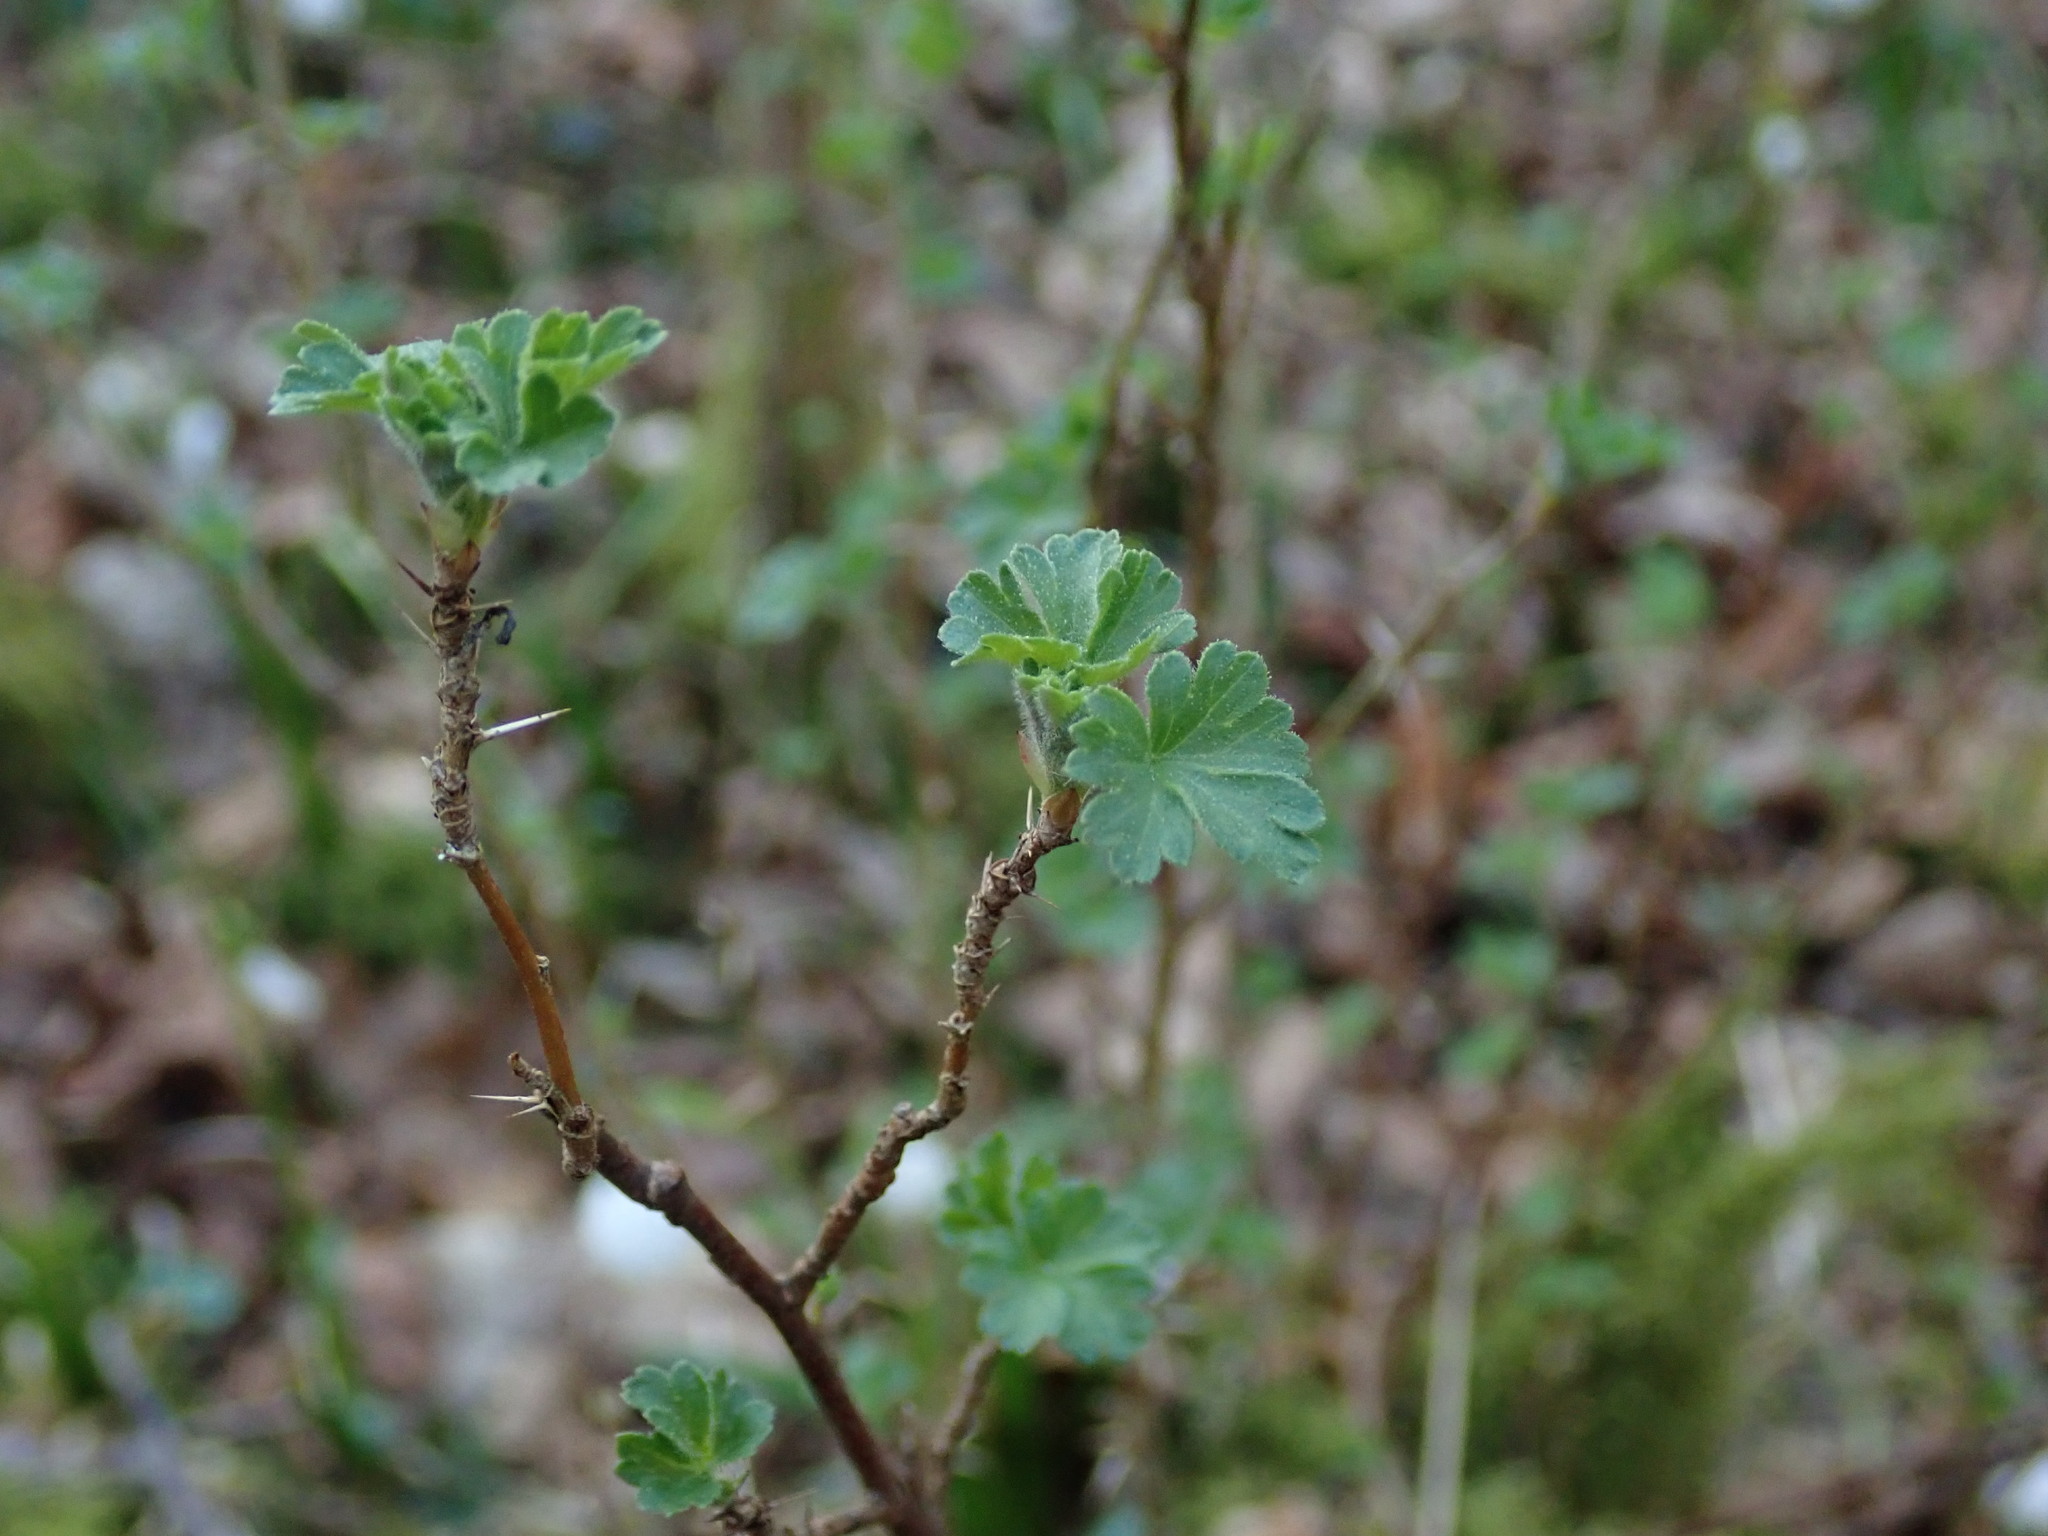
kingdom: Plantae
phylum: Tracheophyta
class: Magnoliopsida
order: Saxifragales
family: Grossulariaceae
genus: Ribes
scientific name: Ribes uva-crispa
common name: Gooseberry
